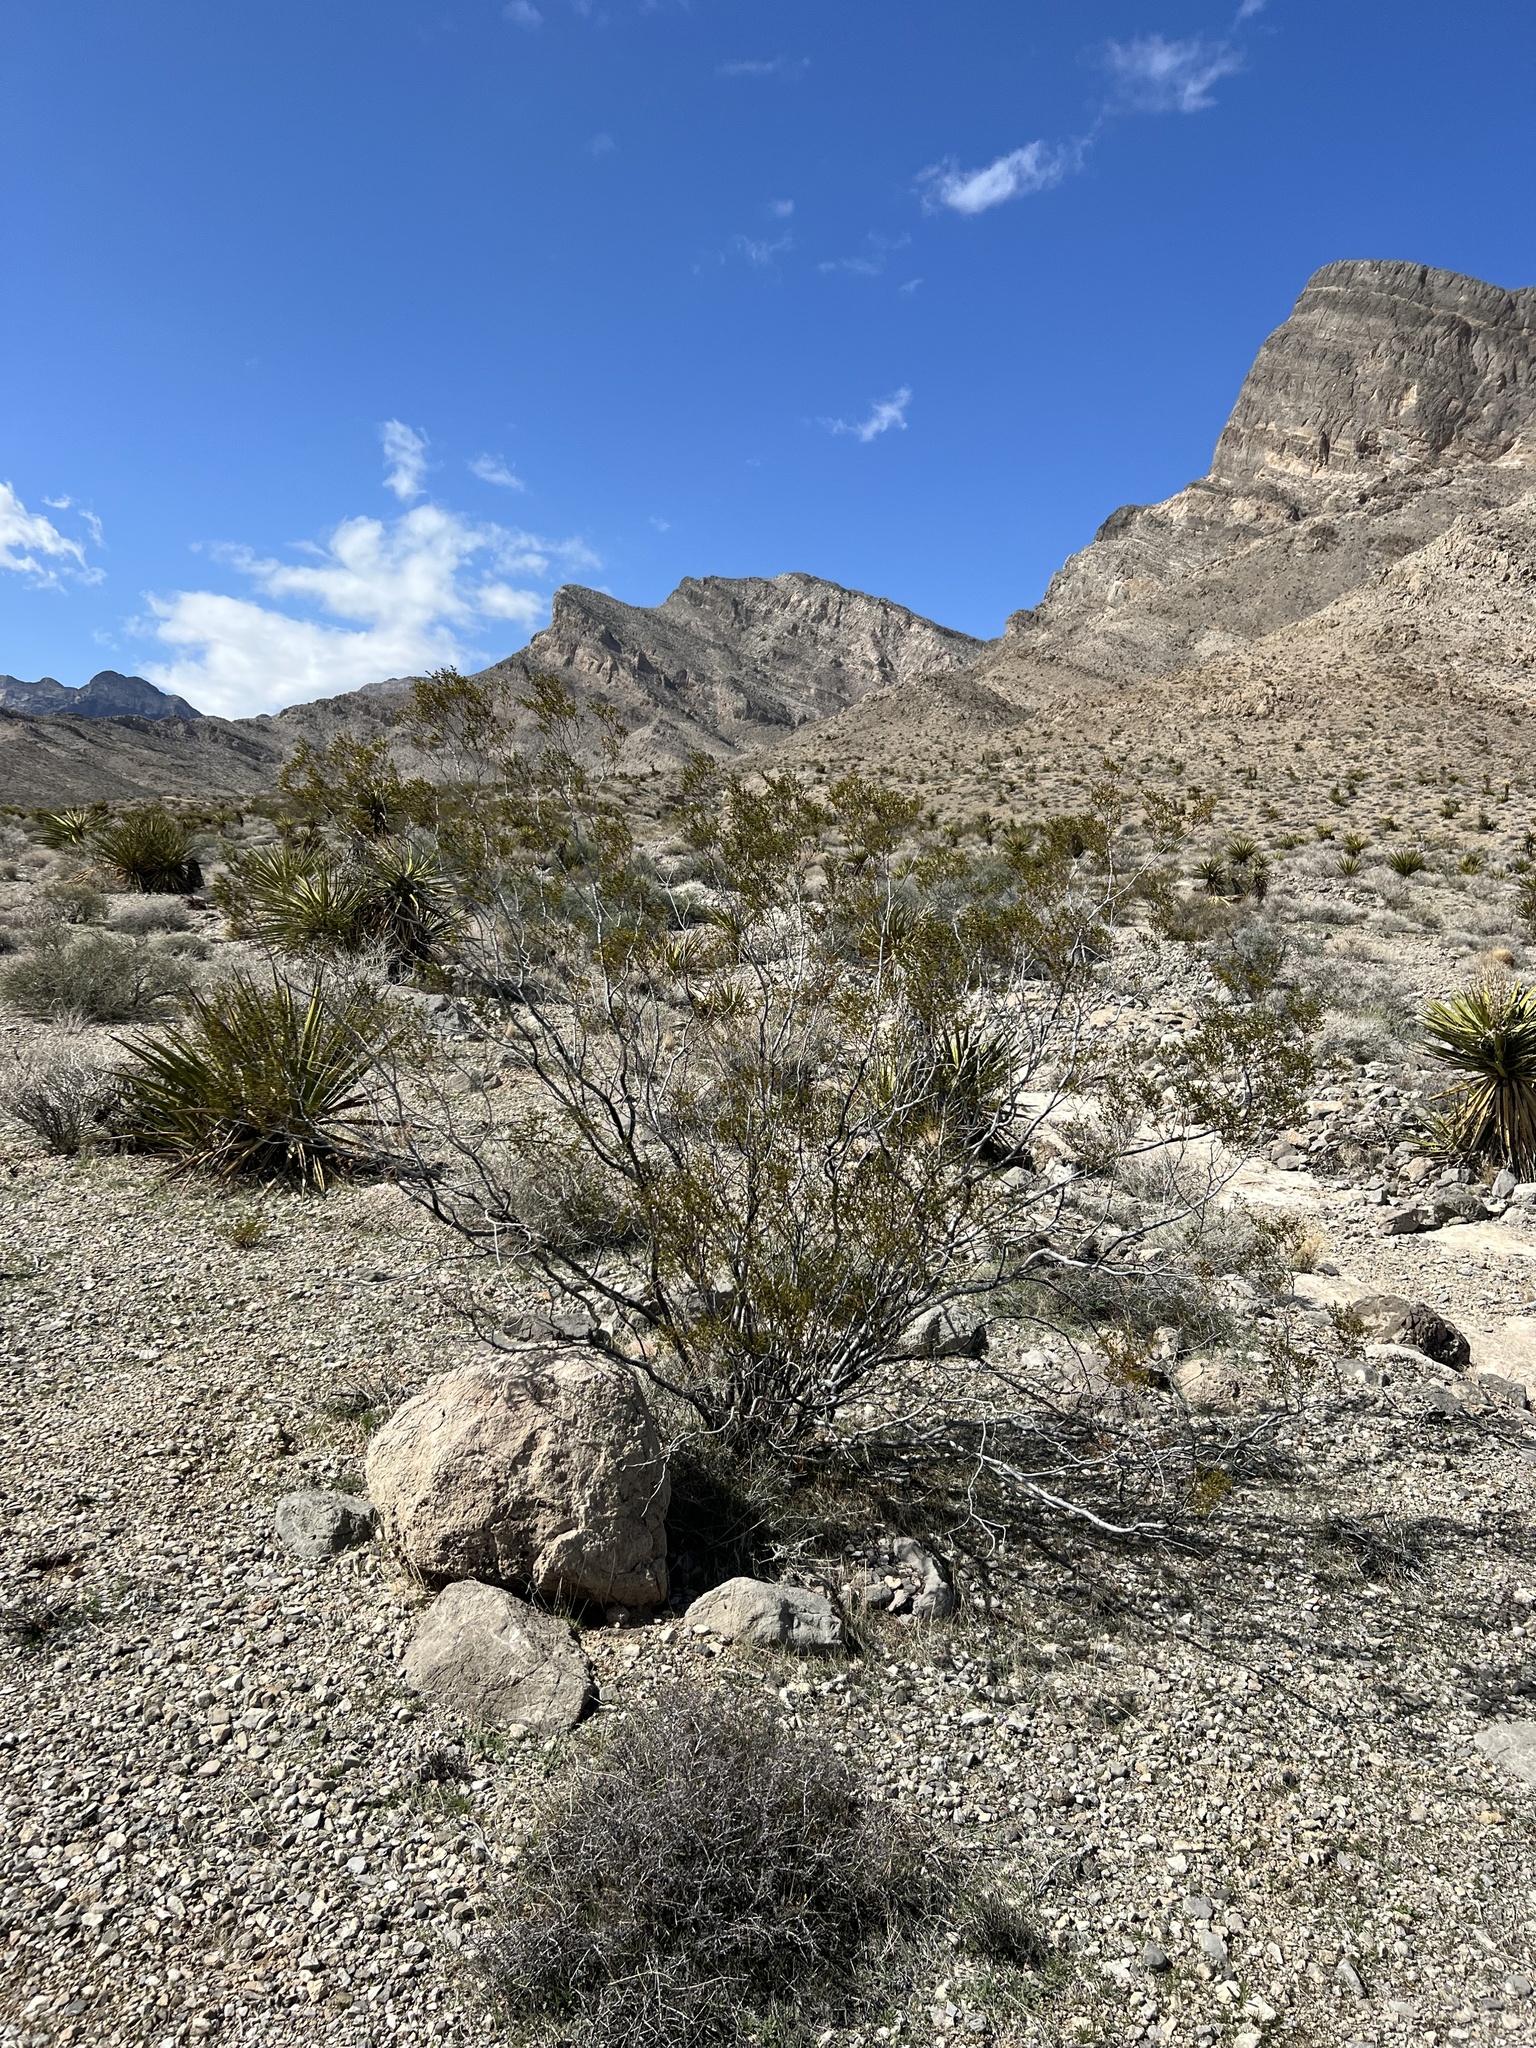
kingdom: Plantae
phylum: Tracheophyta
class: Magnoliopsida
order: Zygophyllales
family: Zygophyllaceae
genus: Larrea
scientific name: Larrea tridentata
